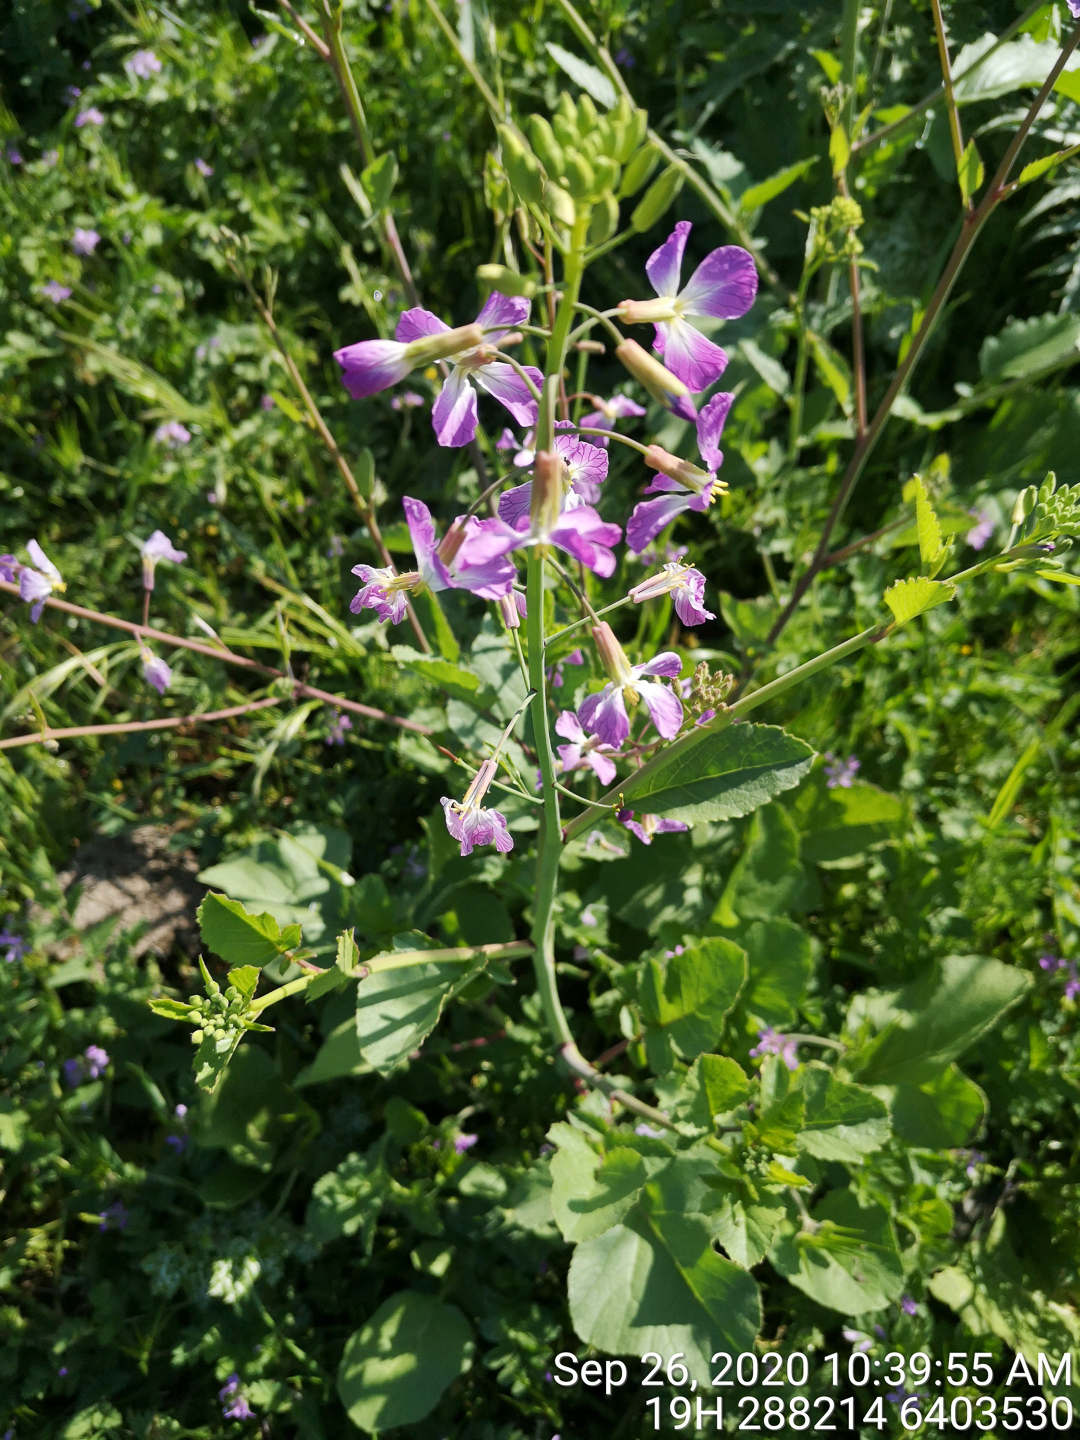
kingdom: Plantae
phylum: Tracheophyta
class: Magnoliopsida
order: Brassicales
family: Brassicaceae
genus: Raphanus
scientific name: Raphanus sativus
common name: Cultivated radish
